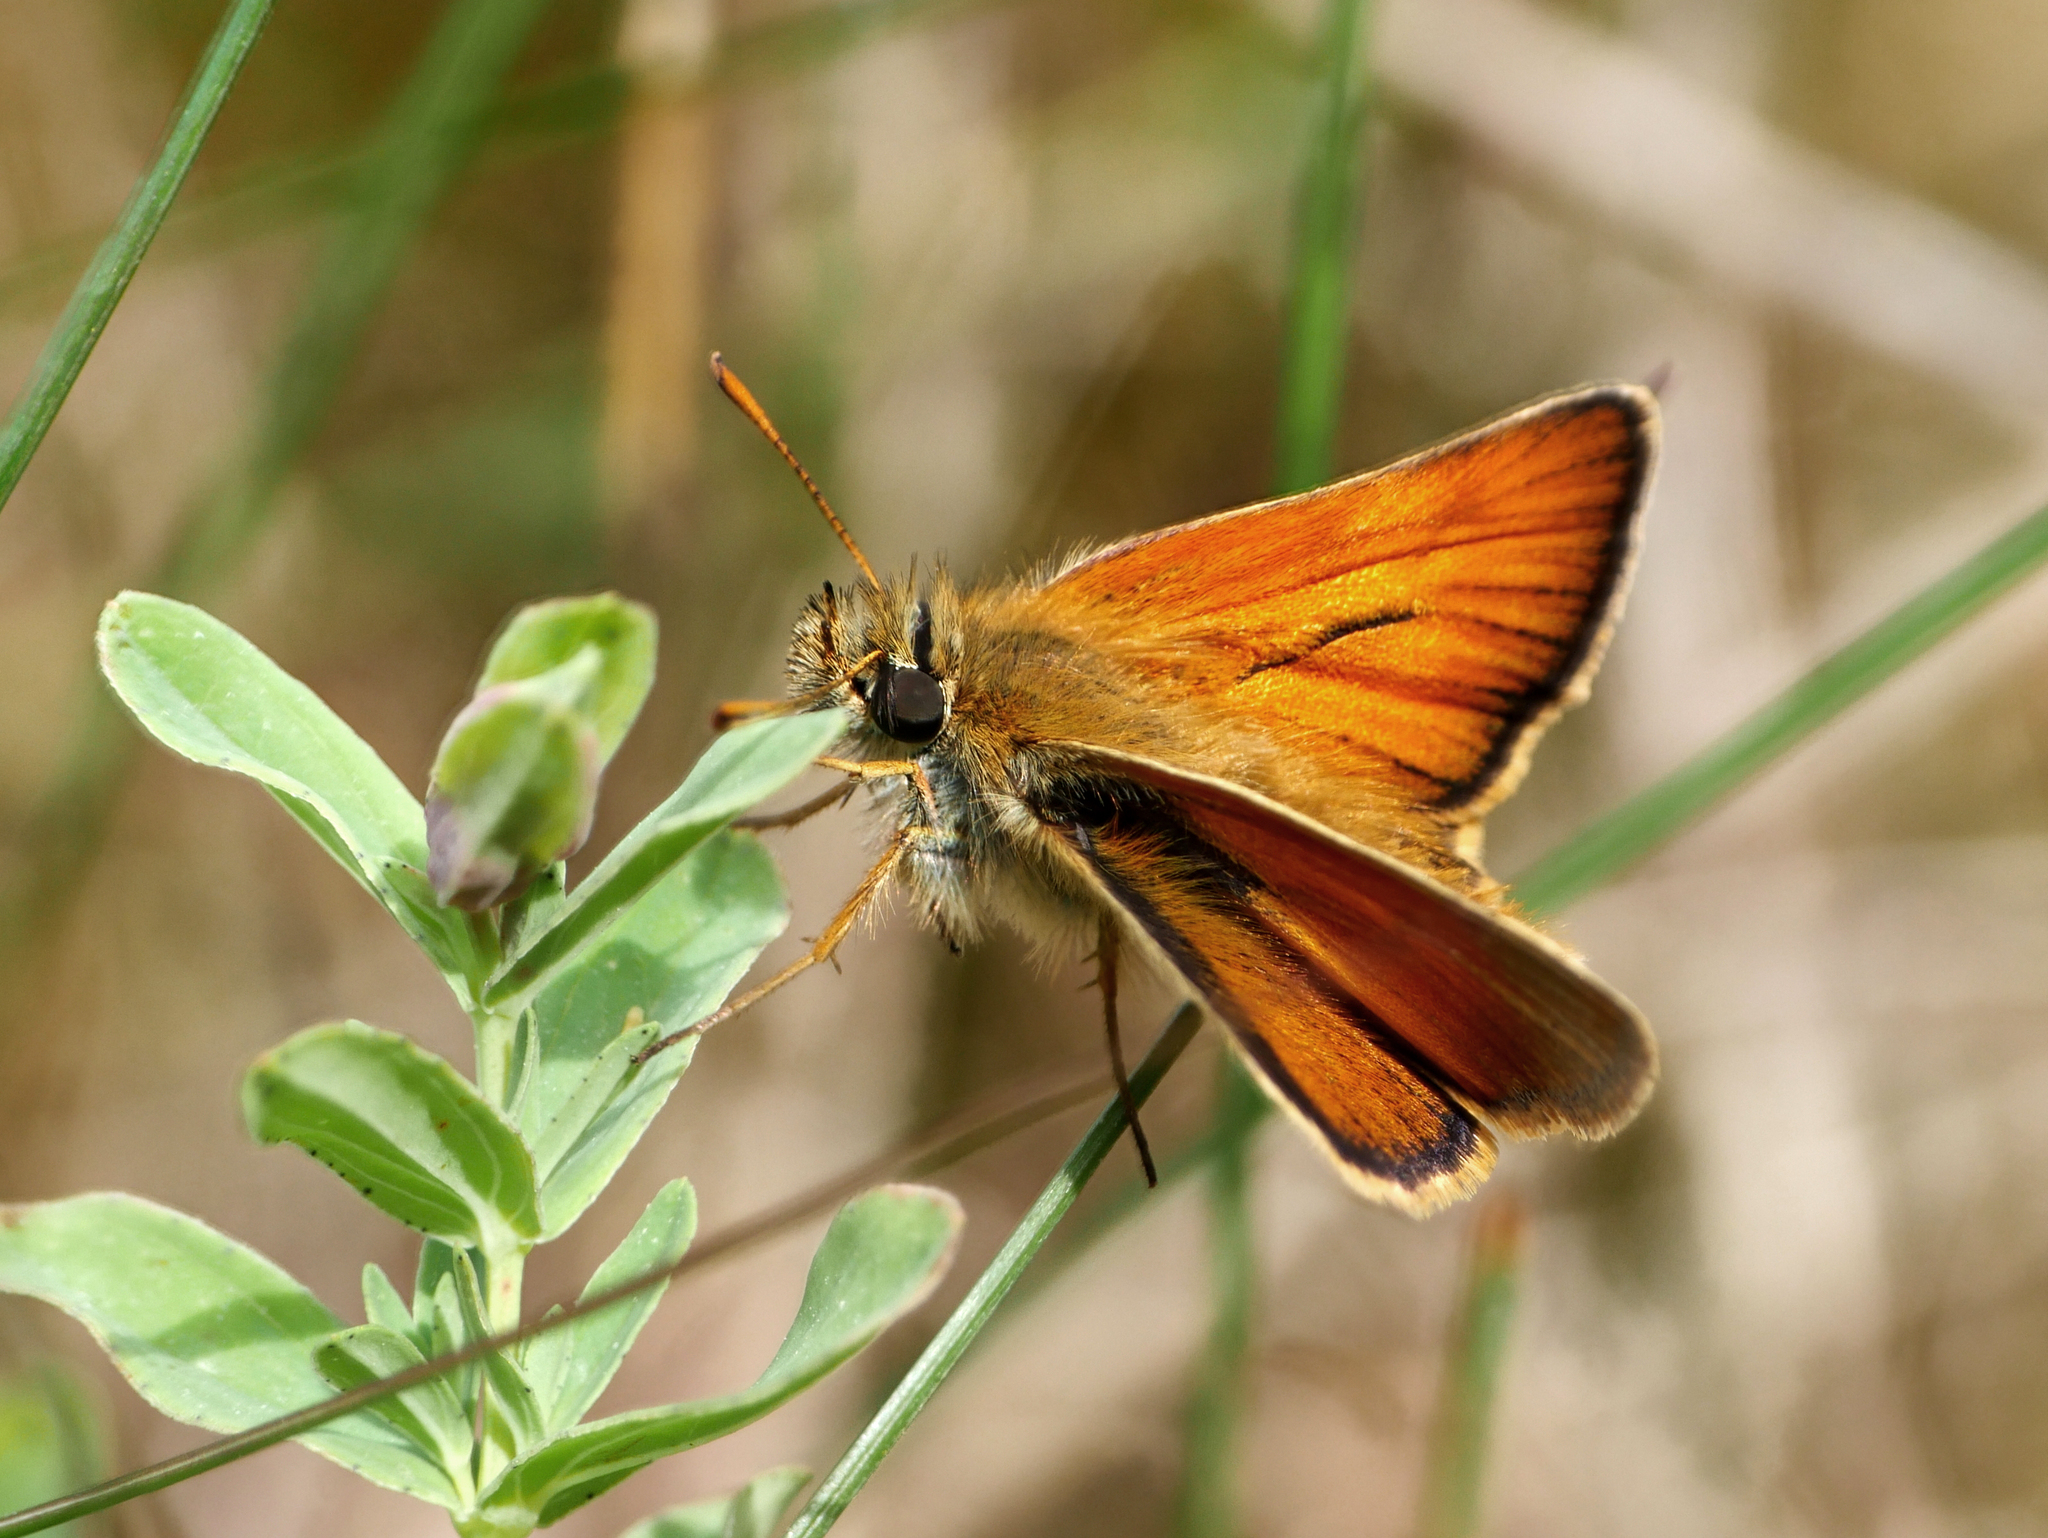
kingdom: Animalia
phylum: Arthropoda
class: Insecta
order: Lepidoptera
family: Hesperiidae
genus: Thymelicus
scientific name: Thymelicus sylvestris
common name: Small skipper
